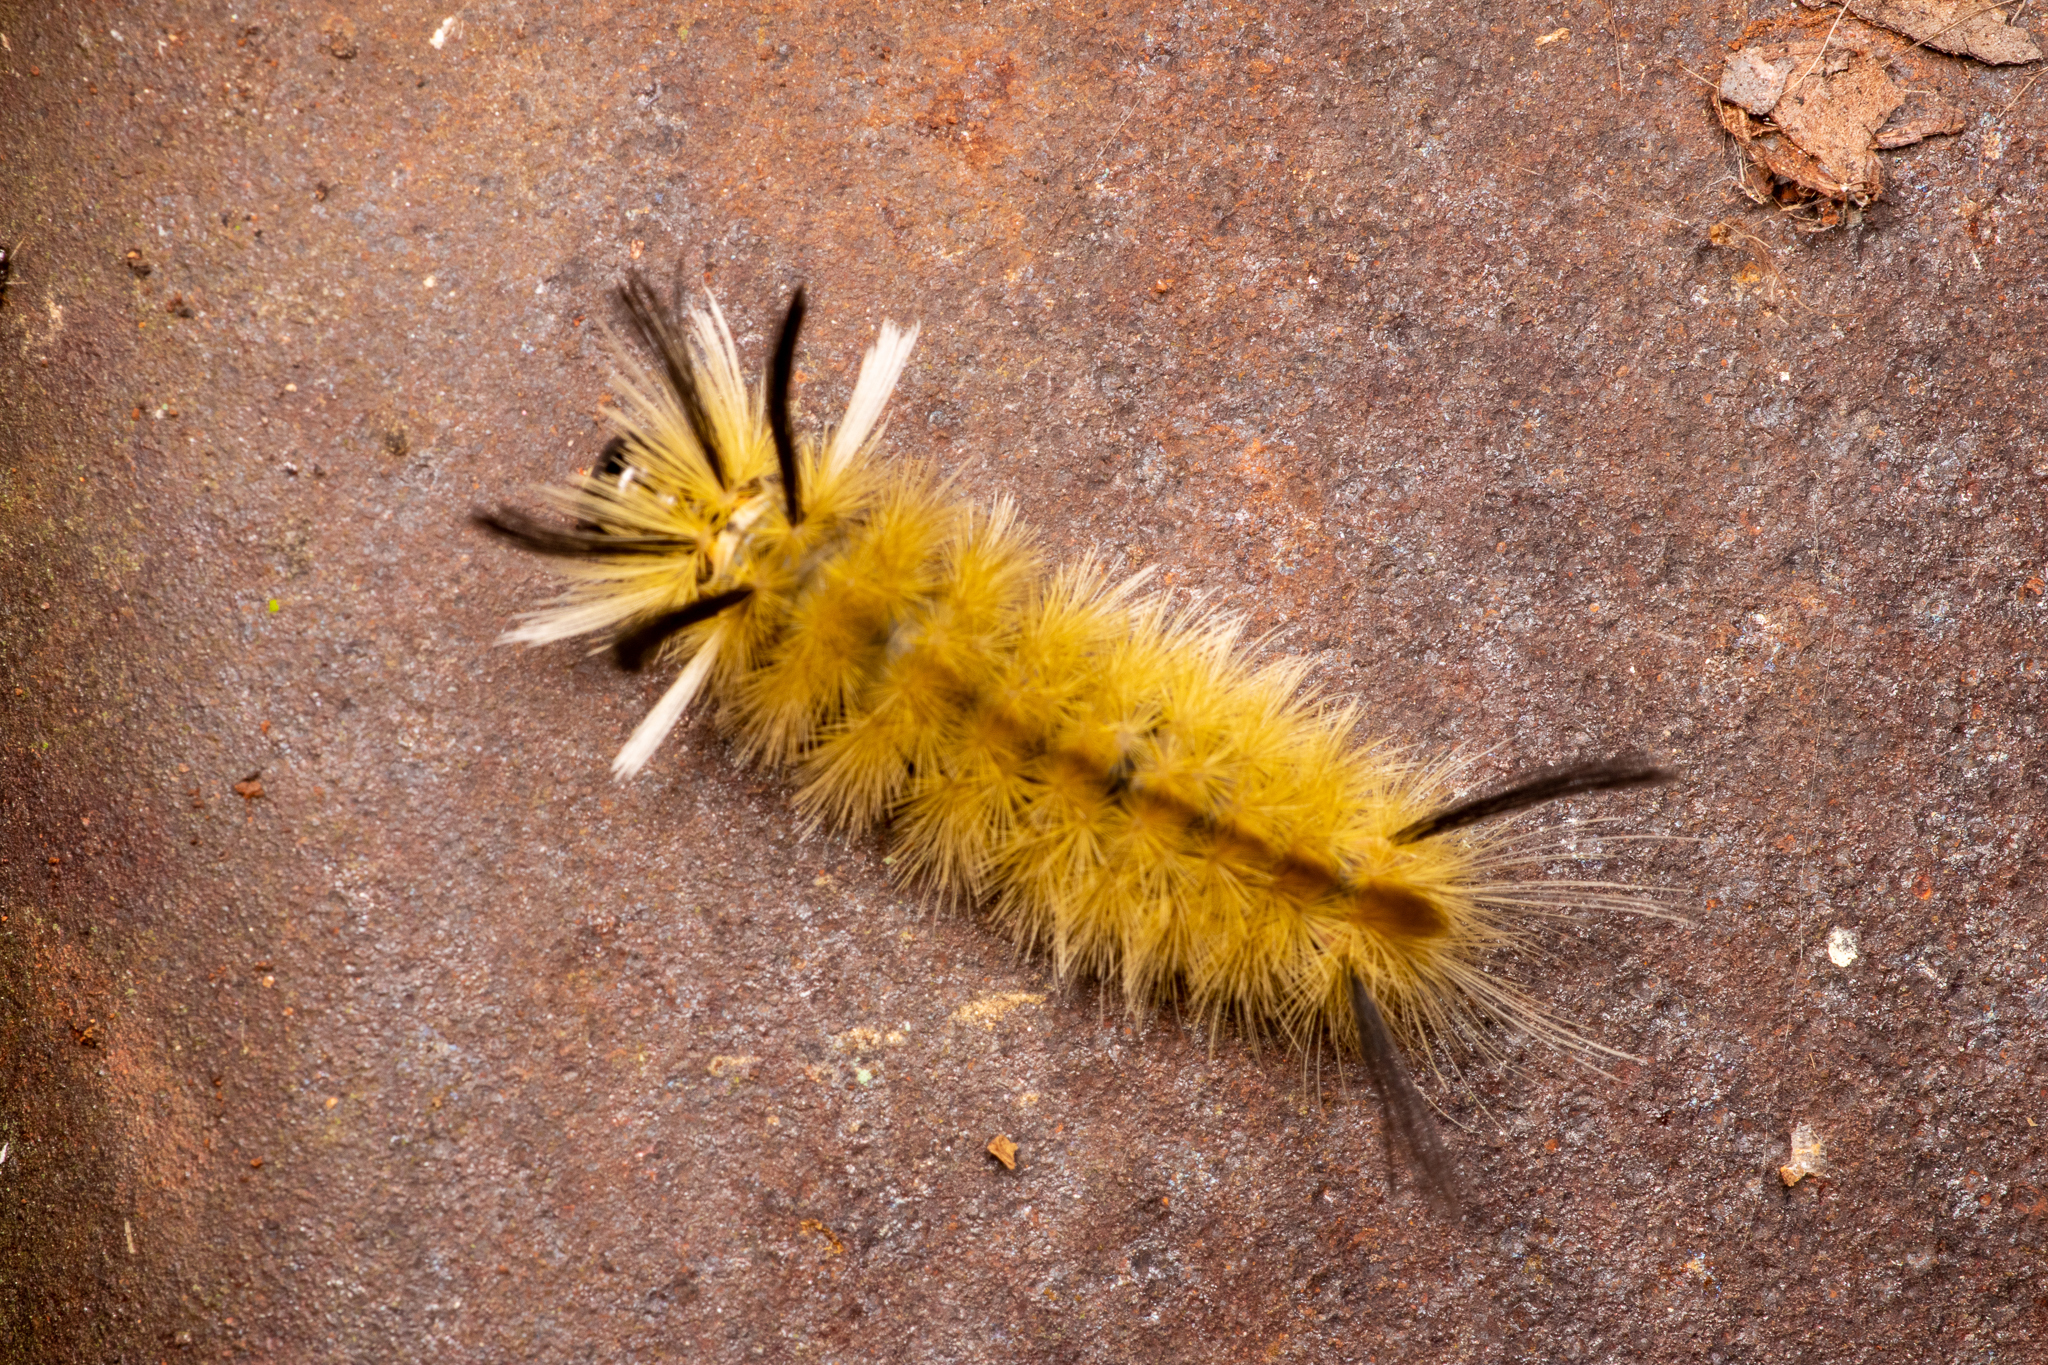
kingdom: Animalia
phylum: Arthropoda
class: Insecta
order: Lepidoptera
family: Erebidae
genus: Halysidota
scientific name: Halysidota tessellaris
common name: Banded tussock moth
